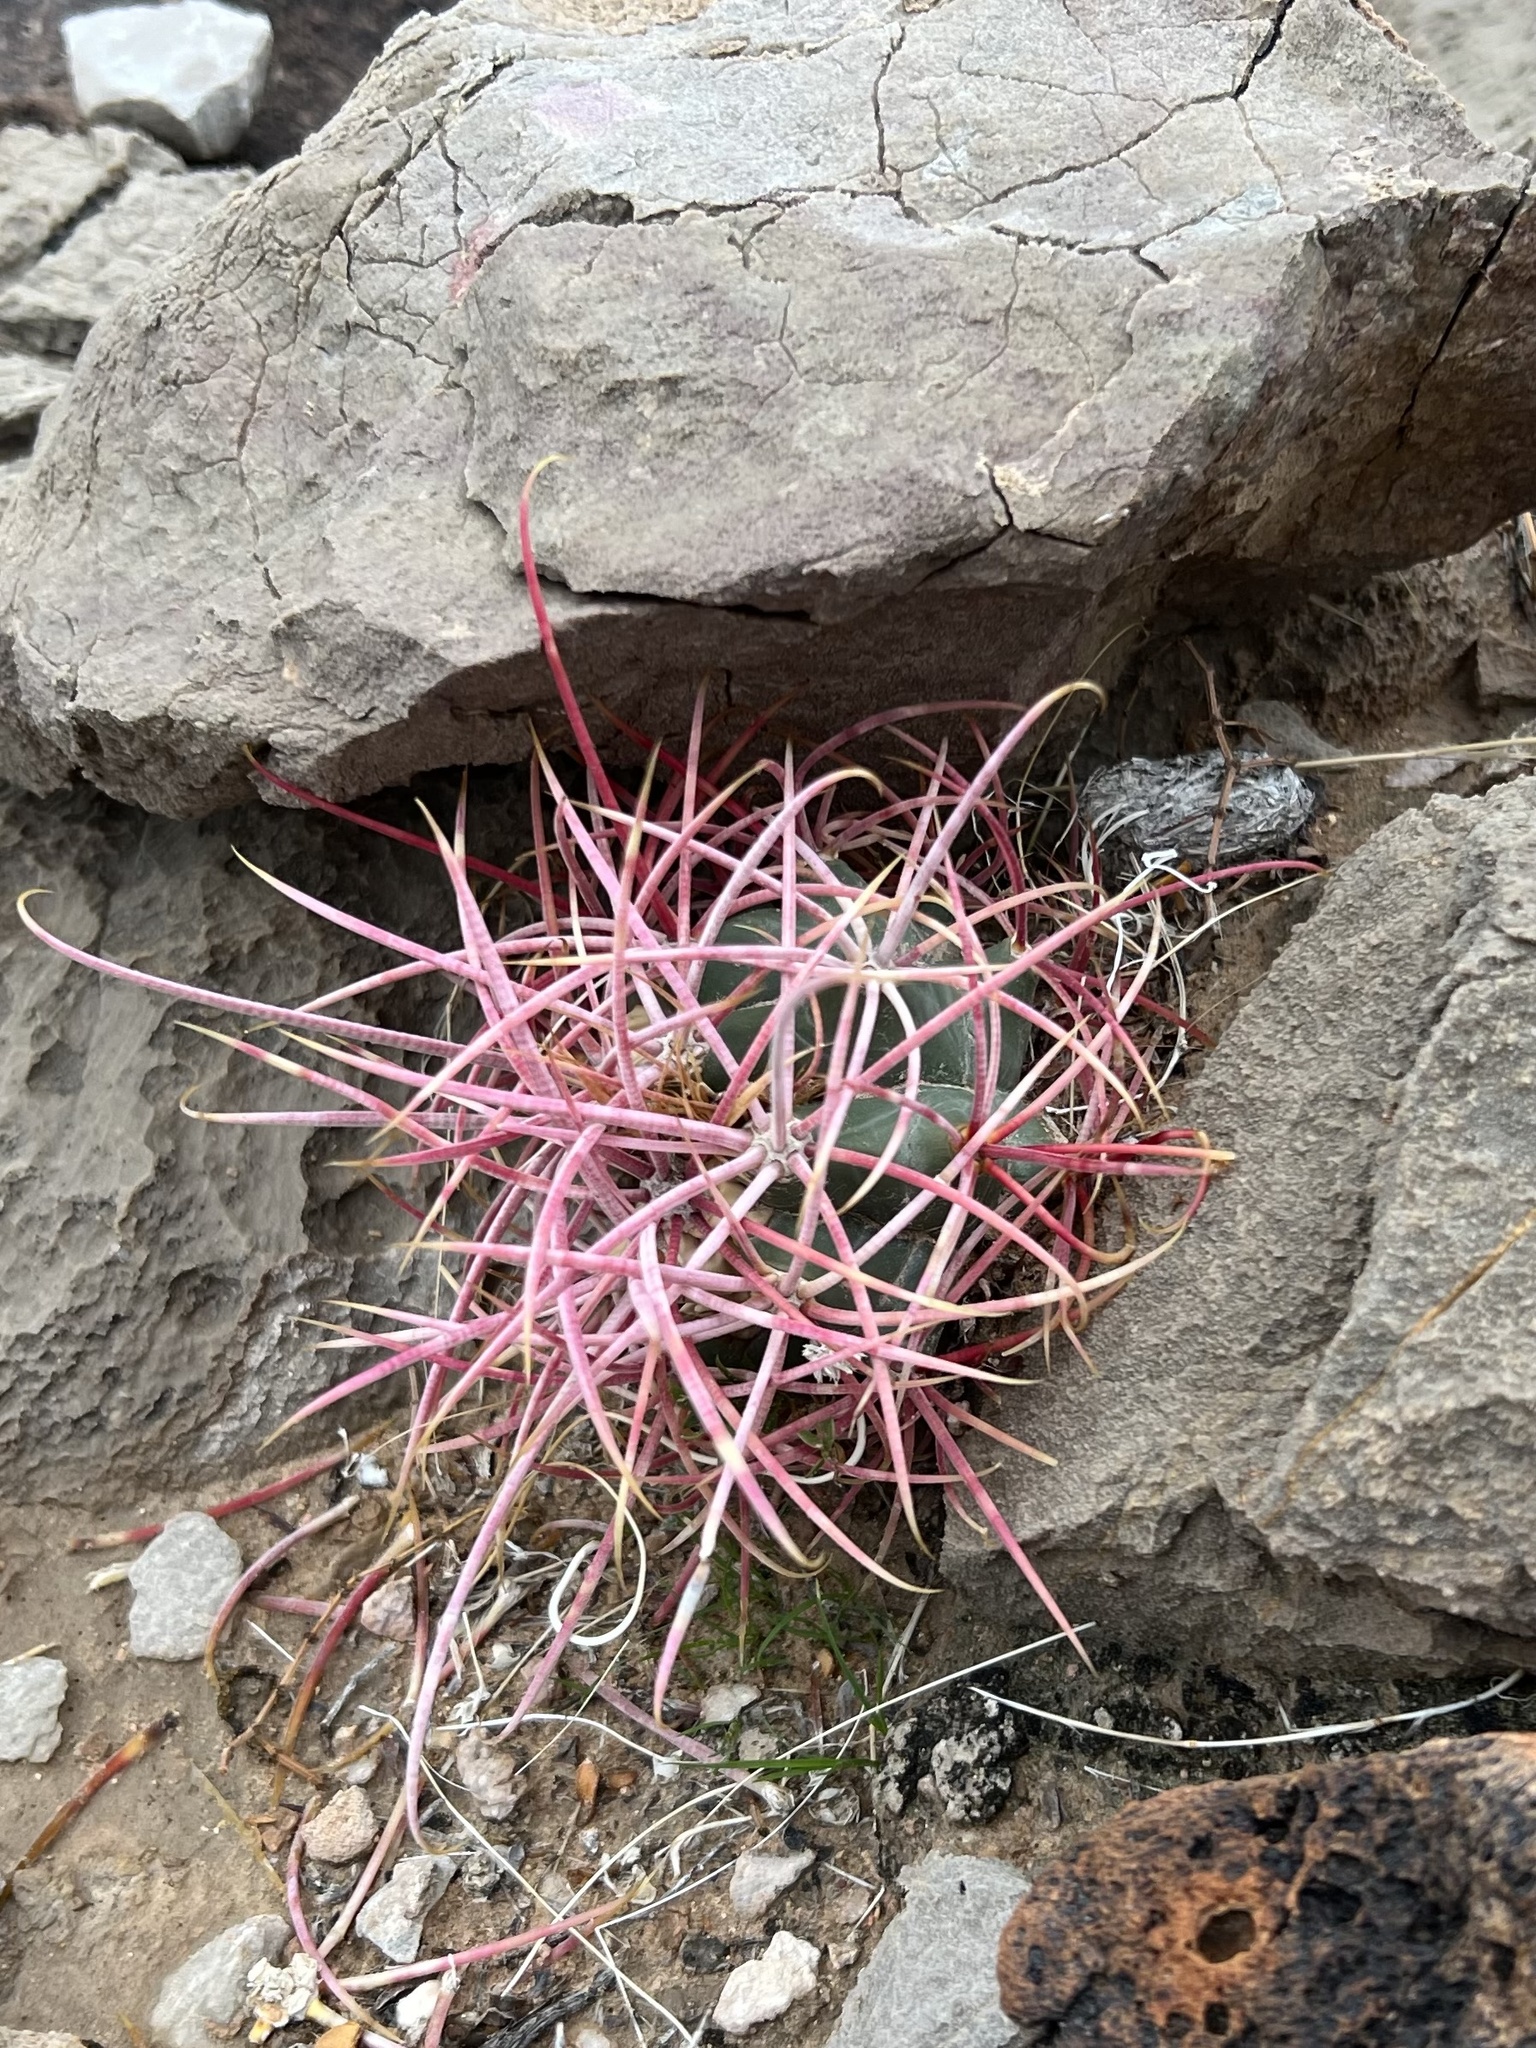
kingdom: Plantae
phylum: Tracheophyta
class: Magnoliopsida
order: Caryophyllales
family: Cactaceae
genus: Ferocactus
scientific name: Ferocactus cylindraceus
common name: California barrel cactus
